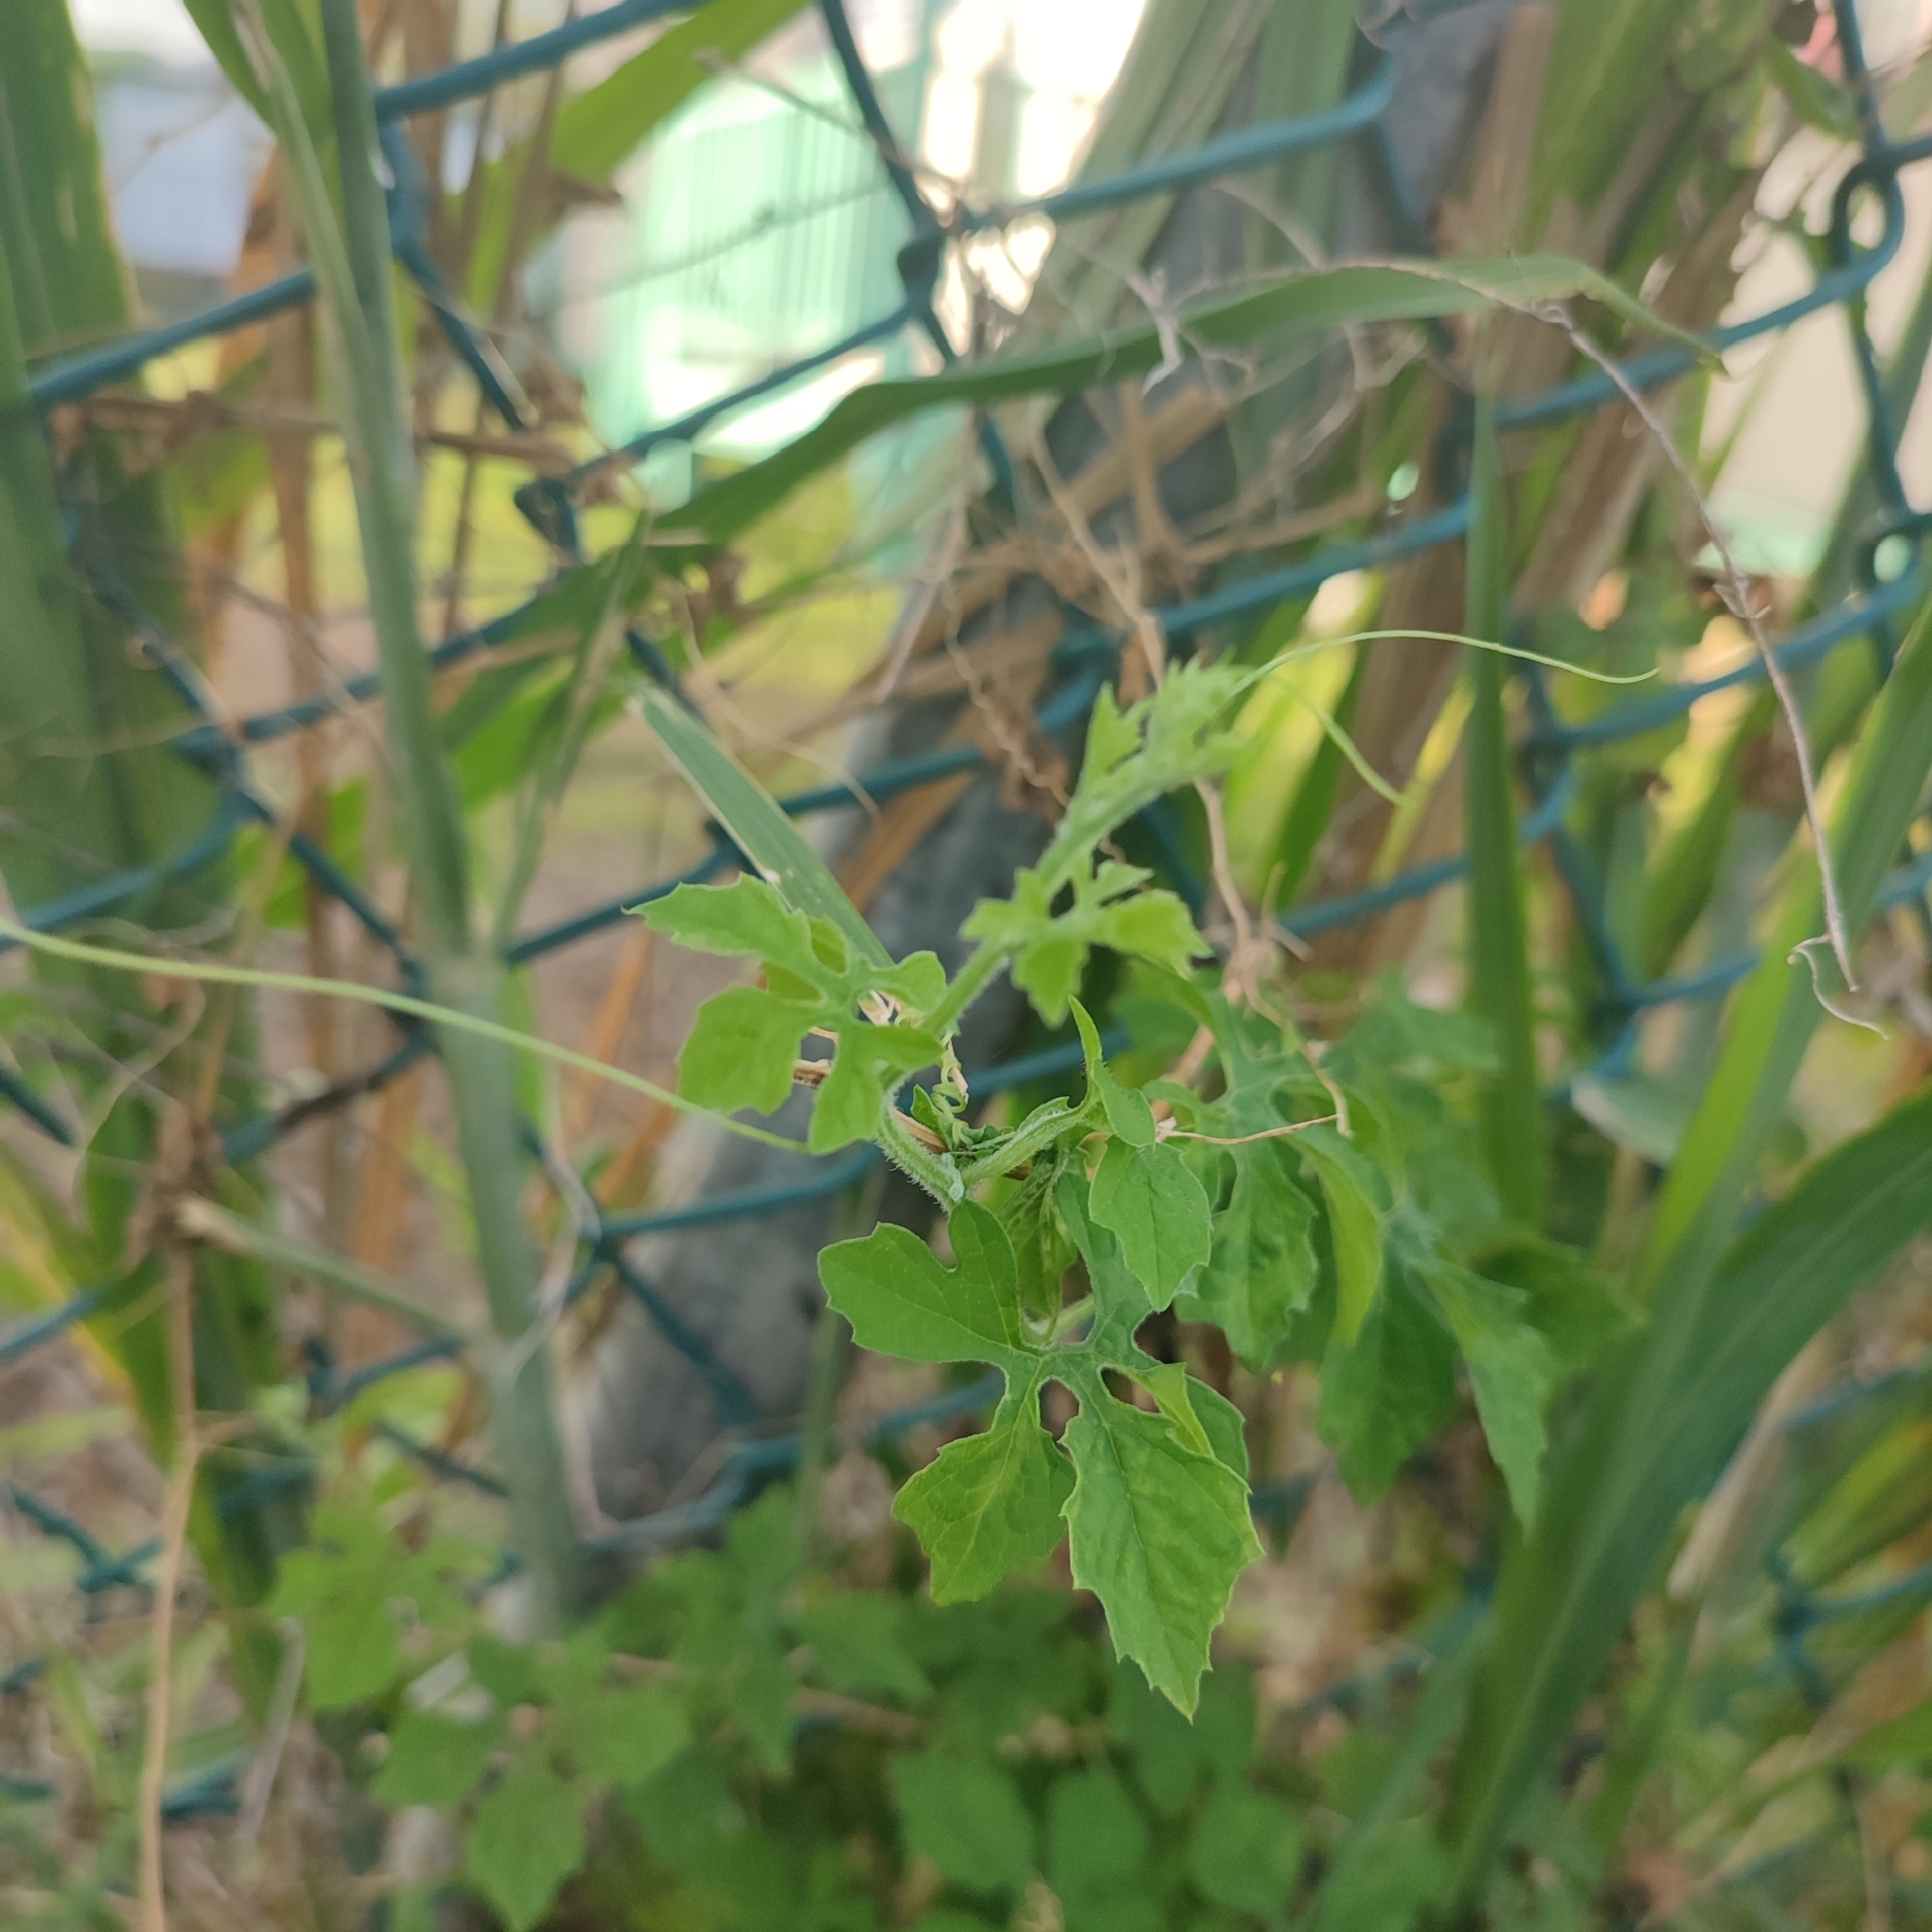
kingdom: Plantae
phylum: Tracheophyta
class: Magnoliopsida
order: Cucurbitales
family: Cucurbitaceae
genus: Momordica
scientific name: Momordica charantia
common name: Balsampear
